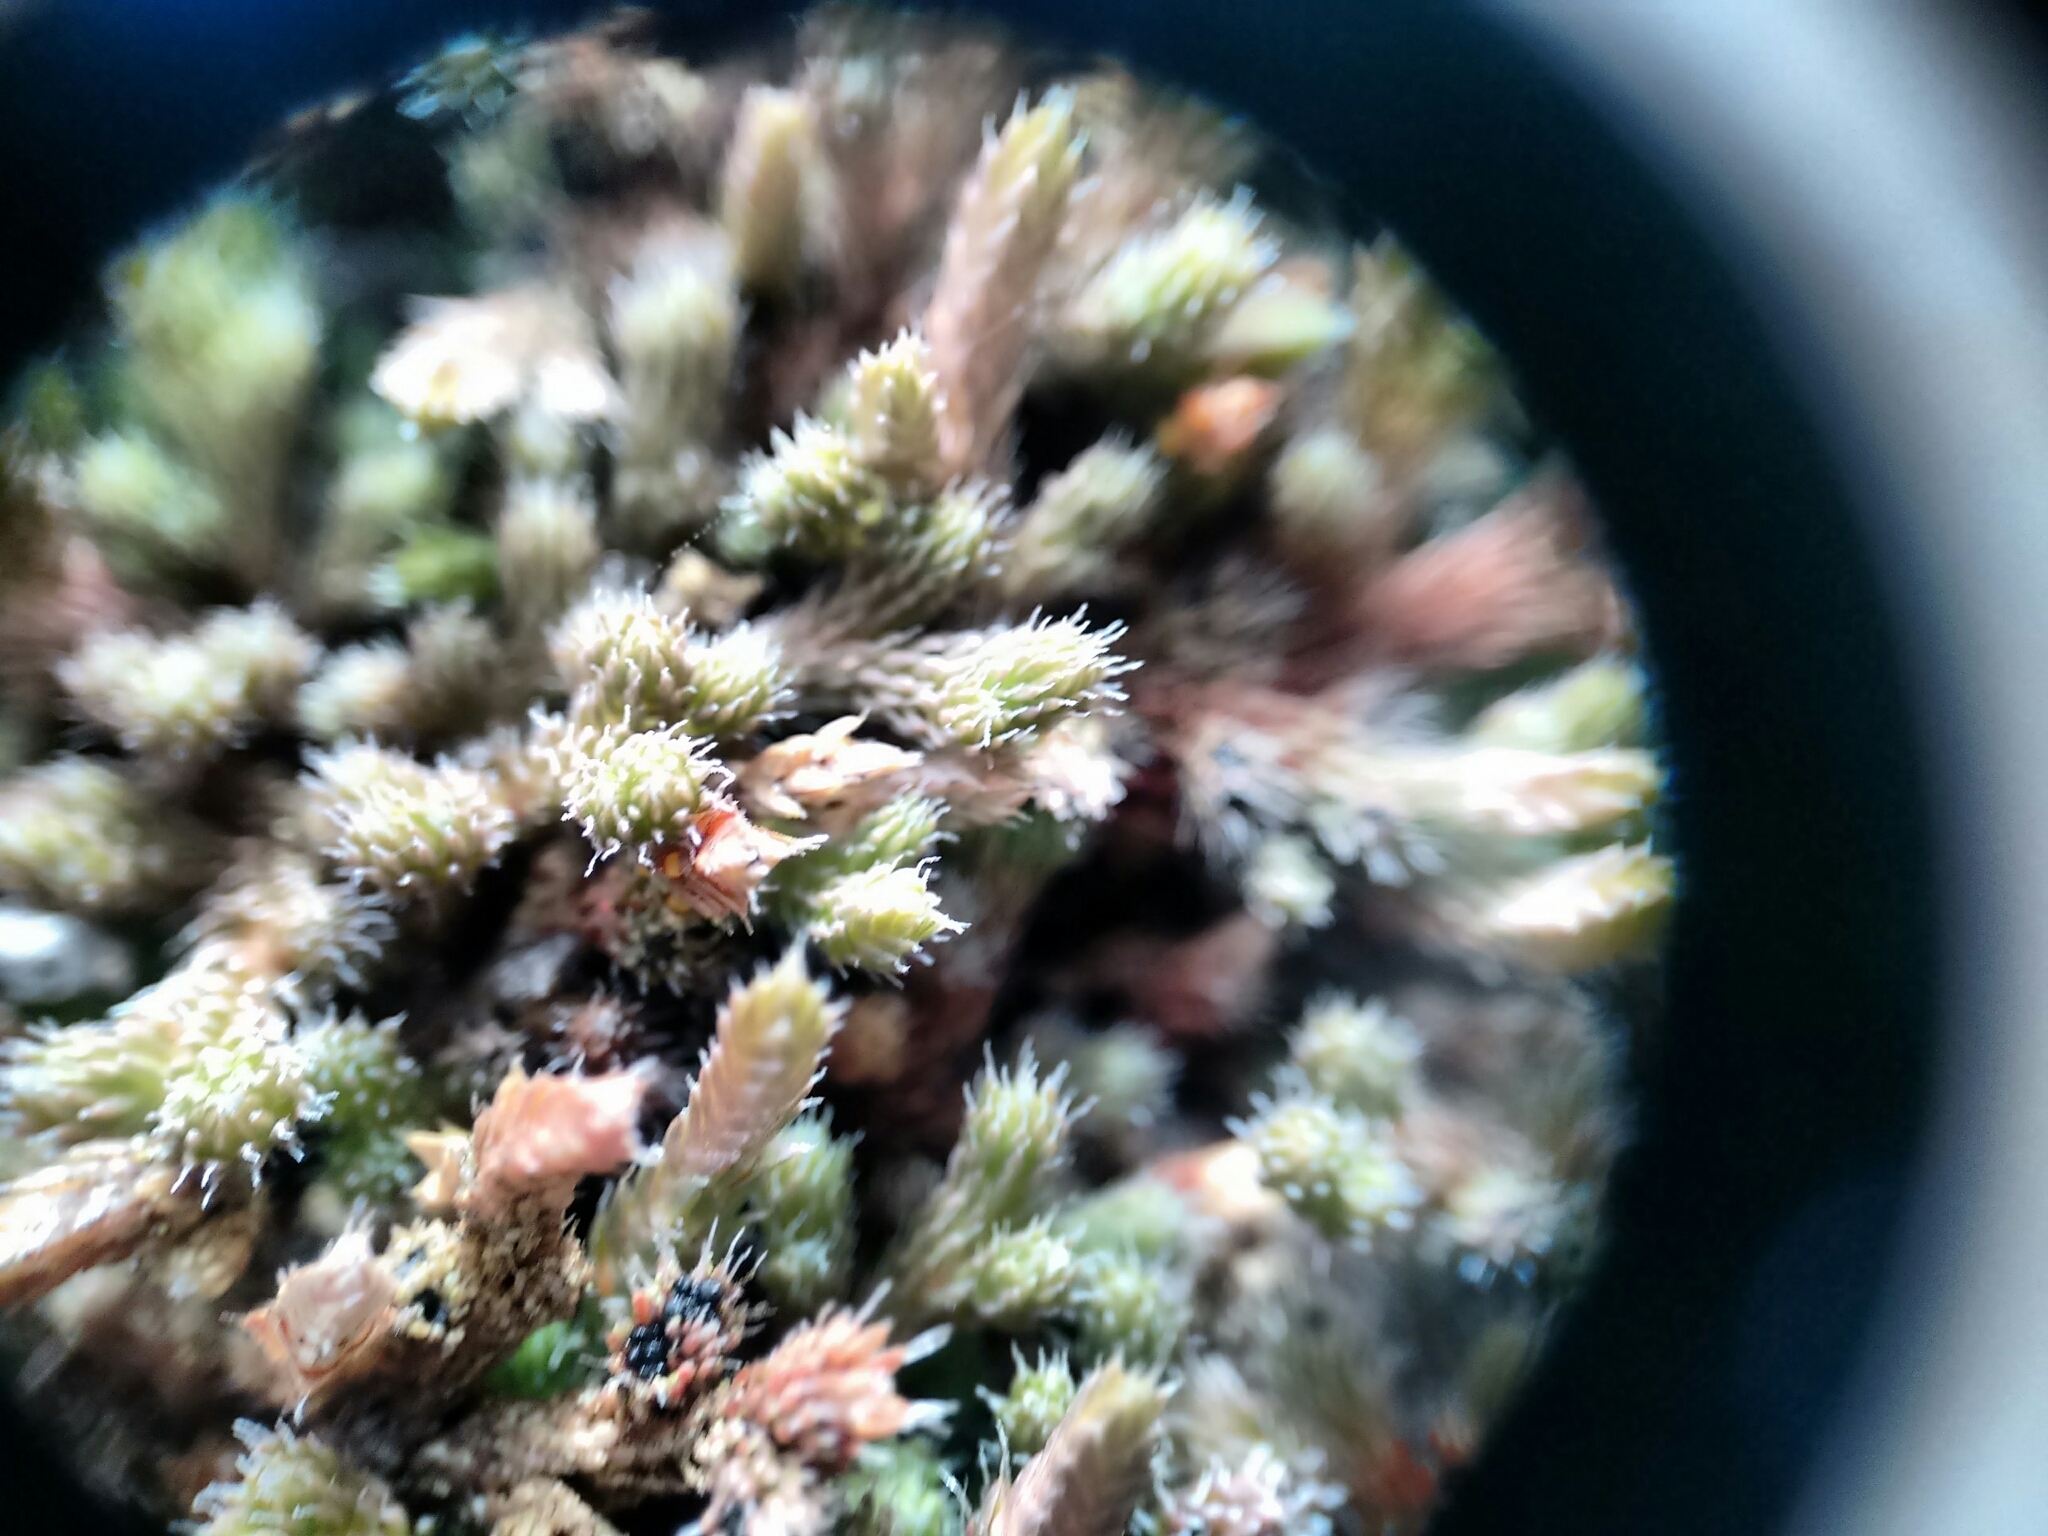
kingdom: Plantae
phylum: Tracheophyta
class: Lycopodiopsida
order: Selaginellales
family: Selaginellaceae
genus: Selaginella
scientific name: Selaginella rupestris
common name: Dwarf spikemoss
